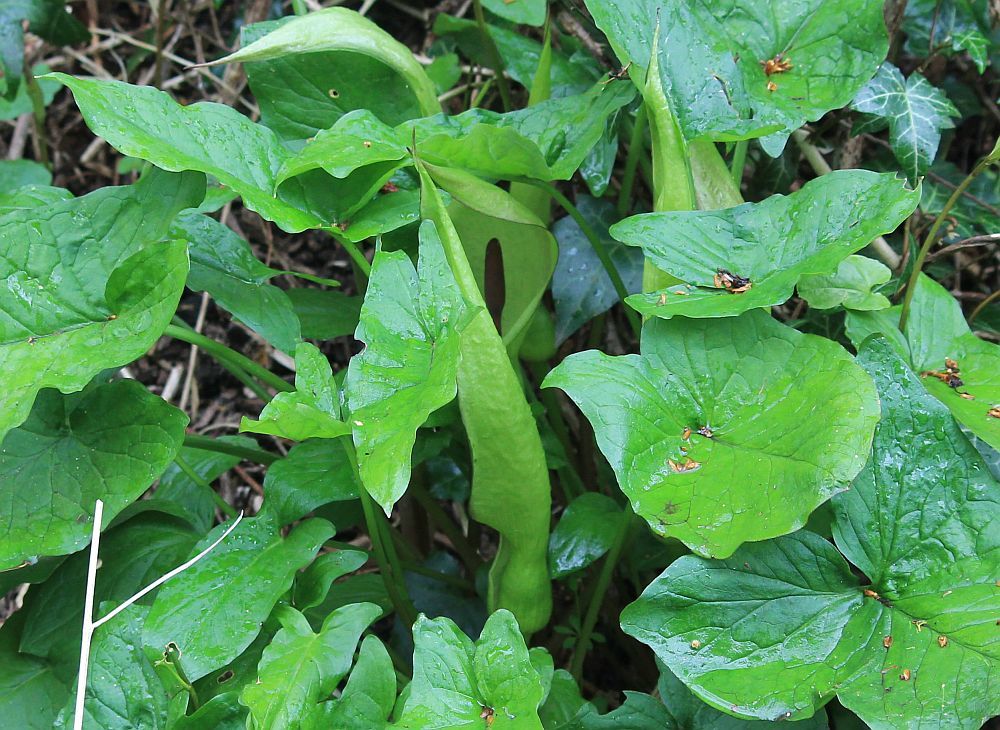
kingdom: Plantae
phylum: Tracheophyta
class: Liliopsida
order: Alismatales
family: Araceae
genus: Arum
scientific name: Arum maculatum
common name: Lords-and-ladies
